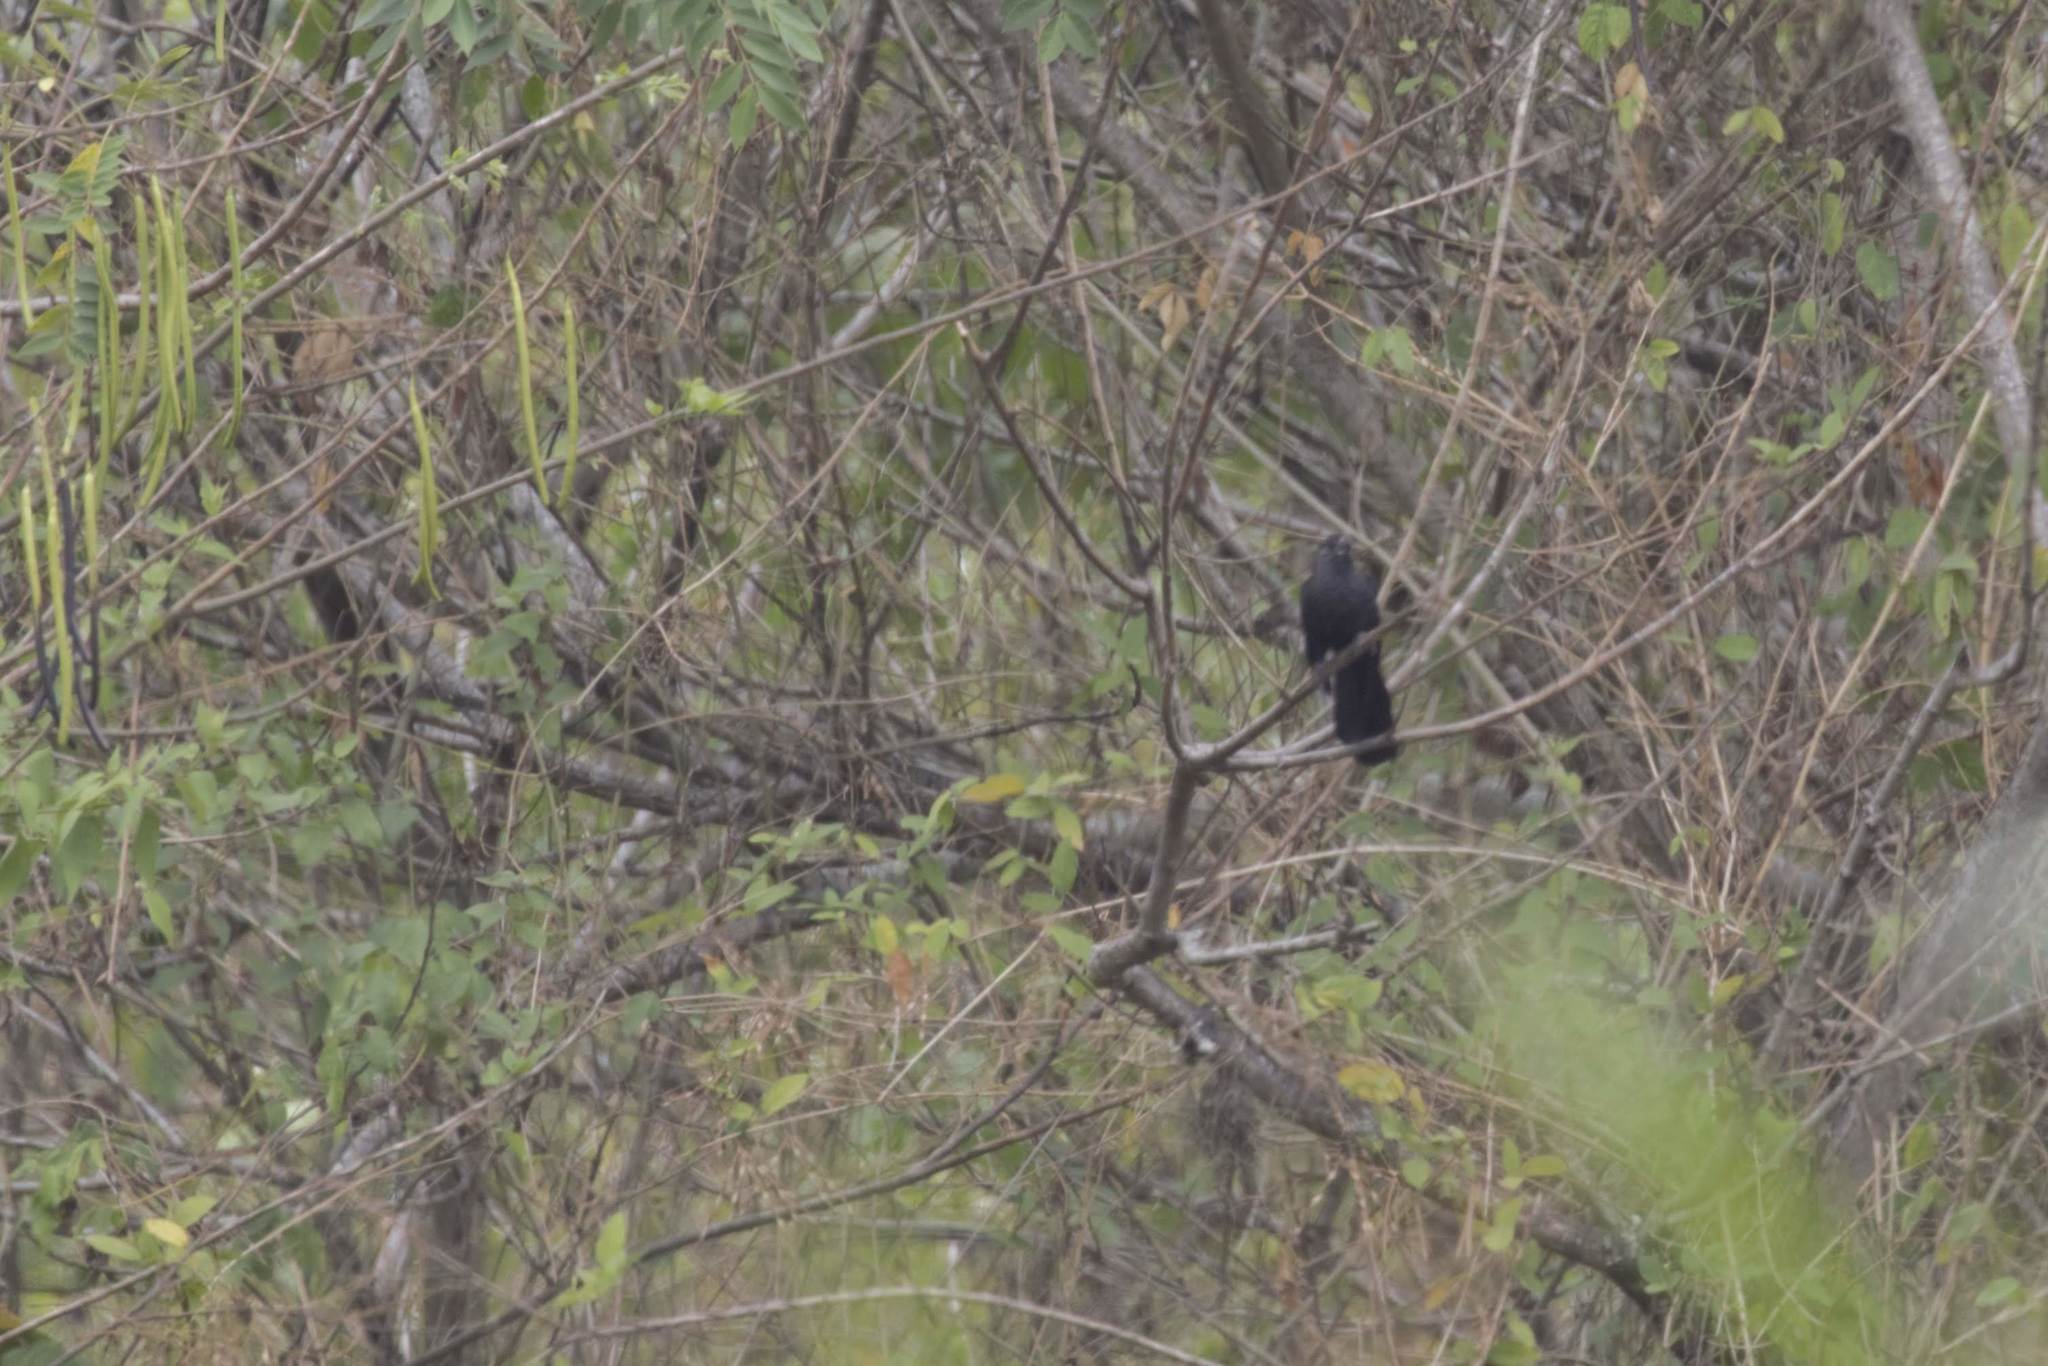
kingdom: Animalia
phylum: Chordata
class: Aves
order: Cuculiformes
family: Cuculidae
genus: Crotophaga
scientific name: Crotophaga ani
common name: Smooth-billed ani
